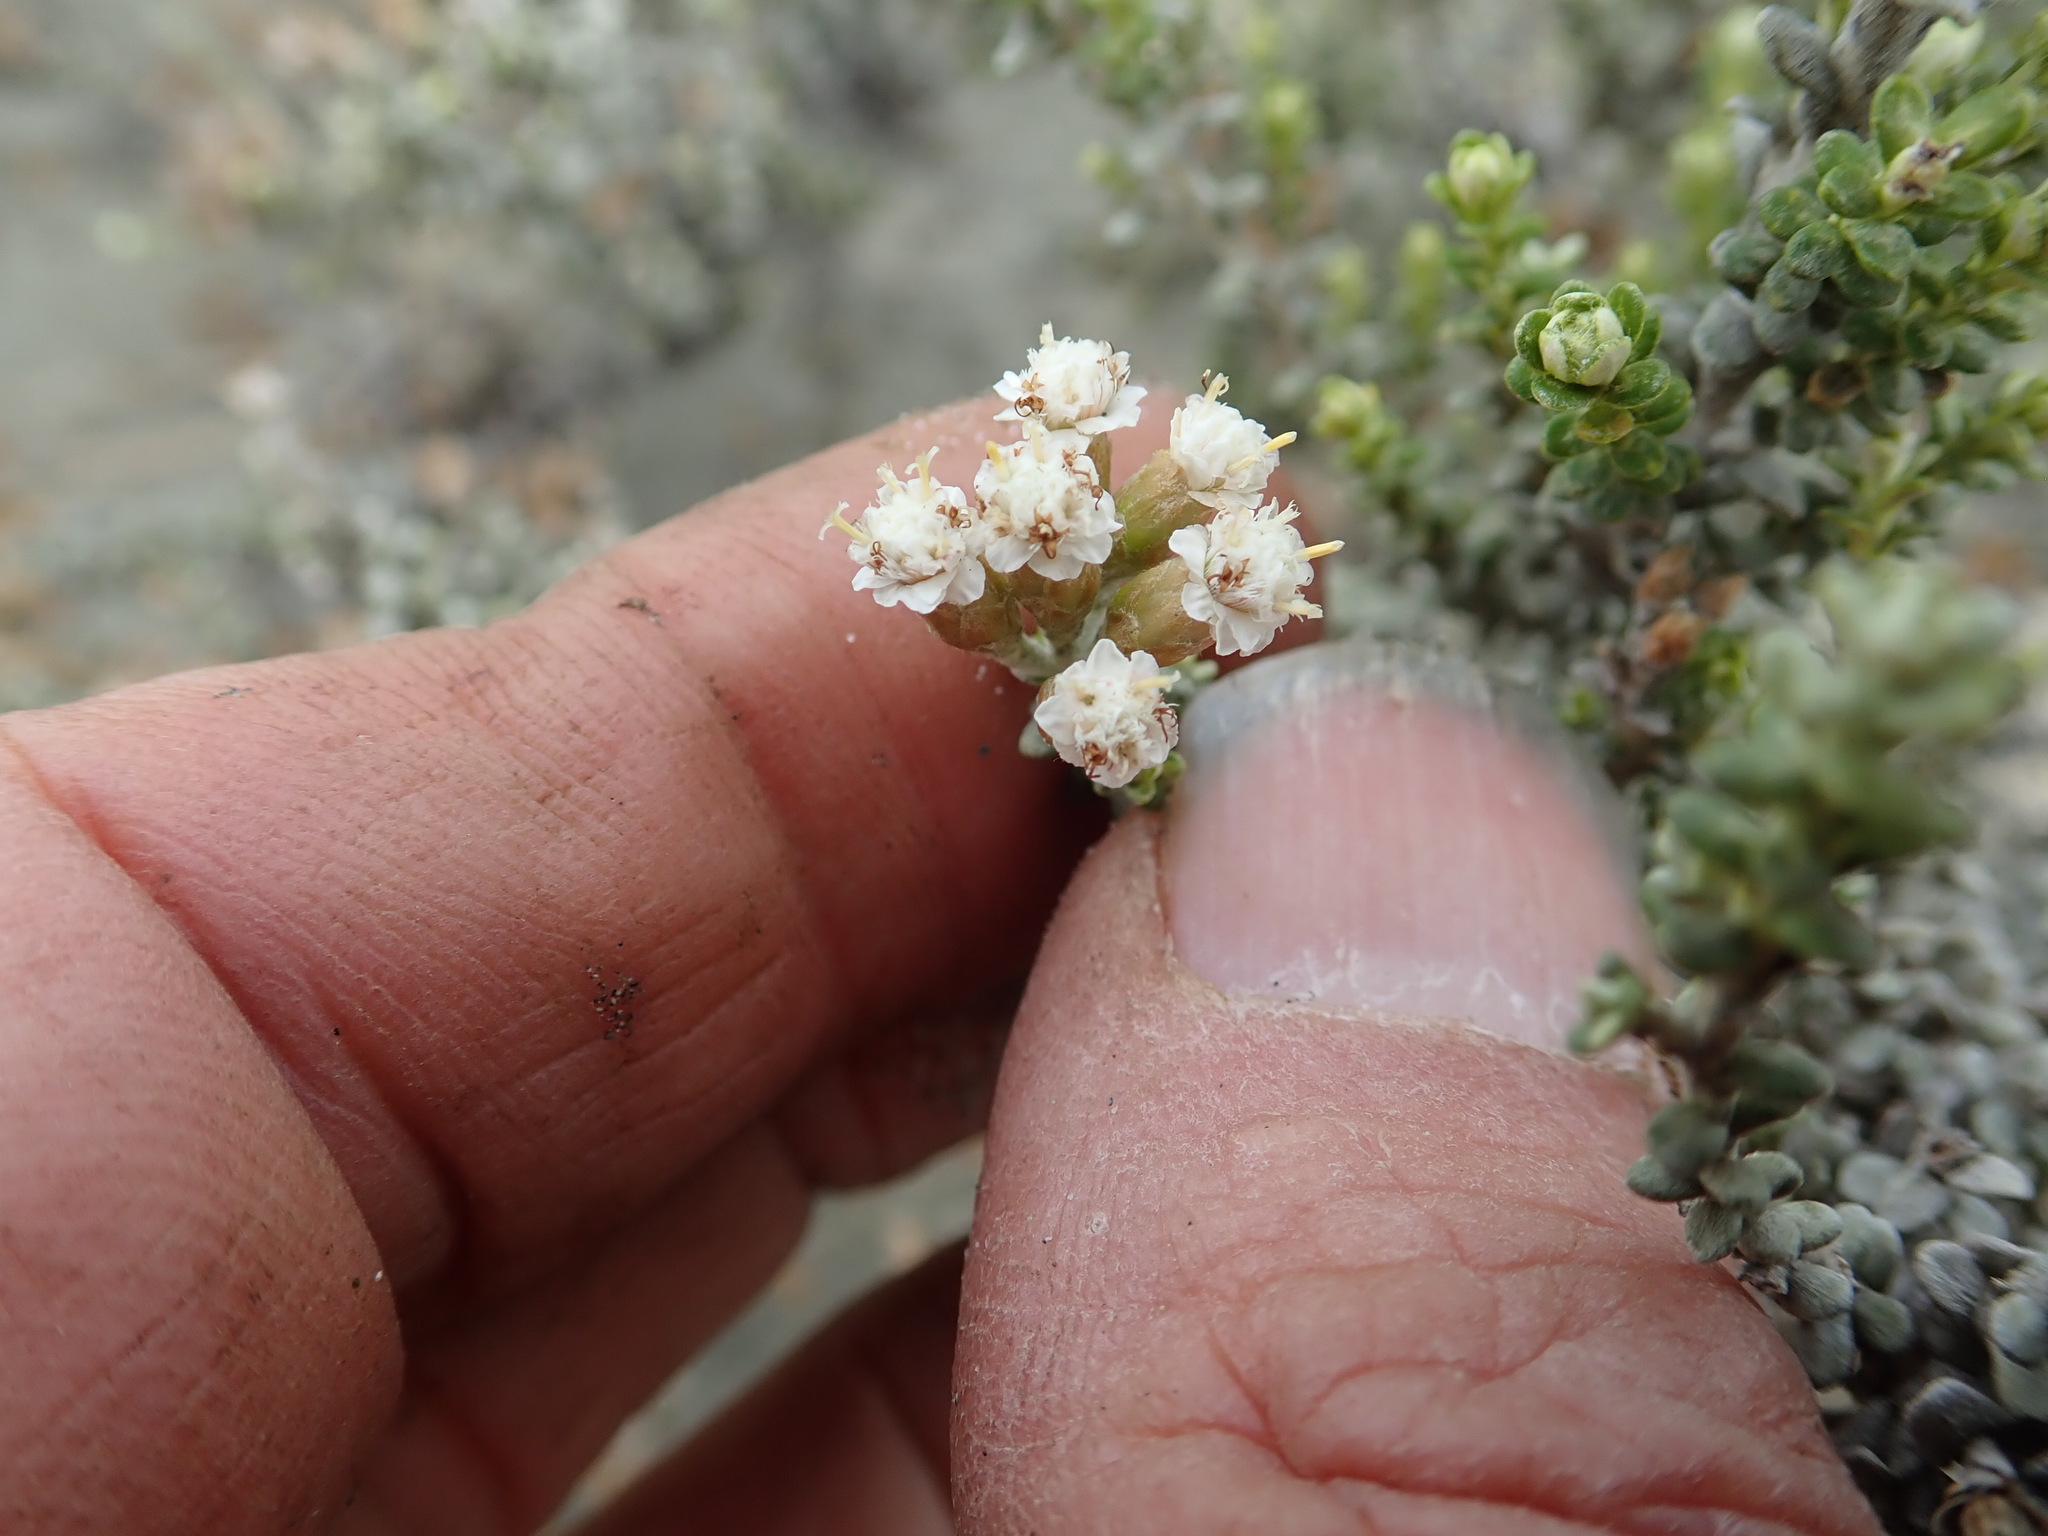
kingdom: Plantae
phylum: Tracheophyta
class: Magnoliopsida
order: Asterales
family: Asteraceae
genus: Ozothamnus
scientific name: Ozothamnus leptophyllus
